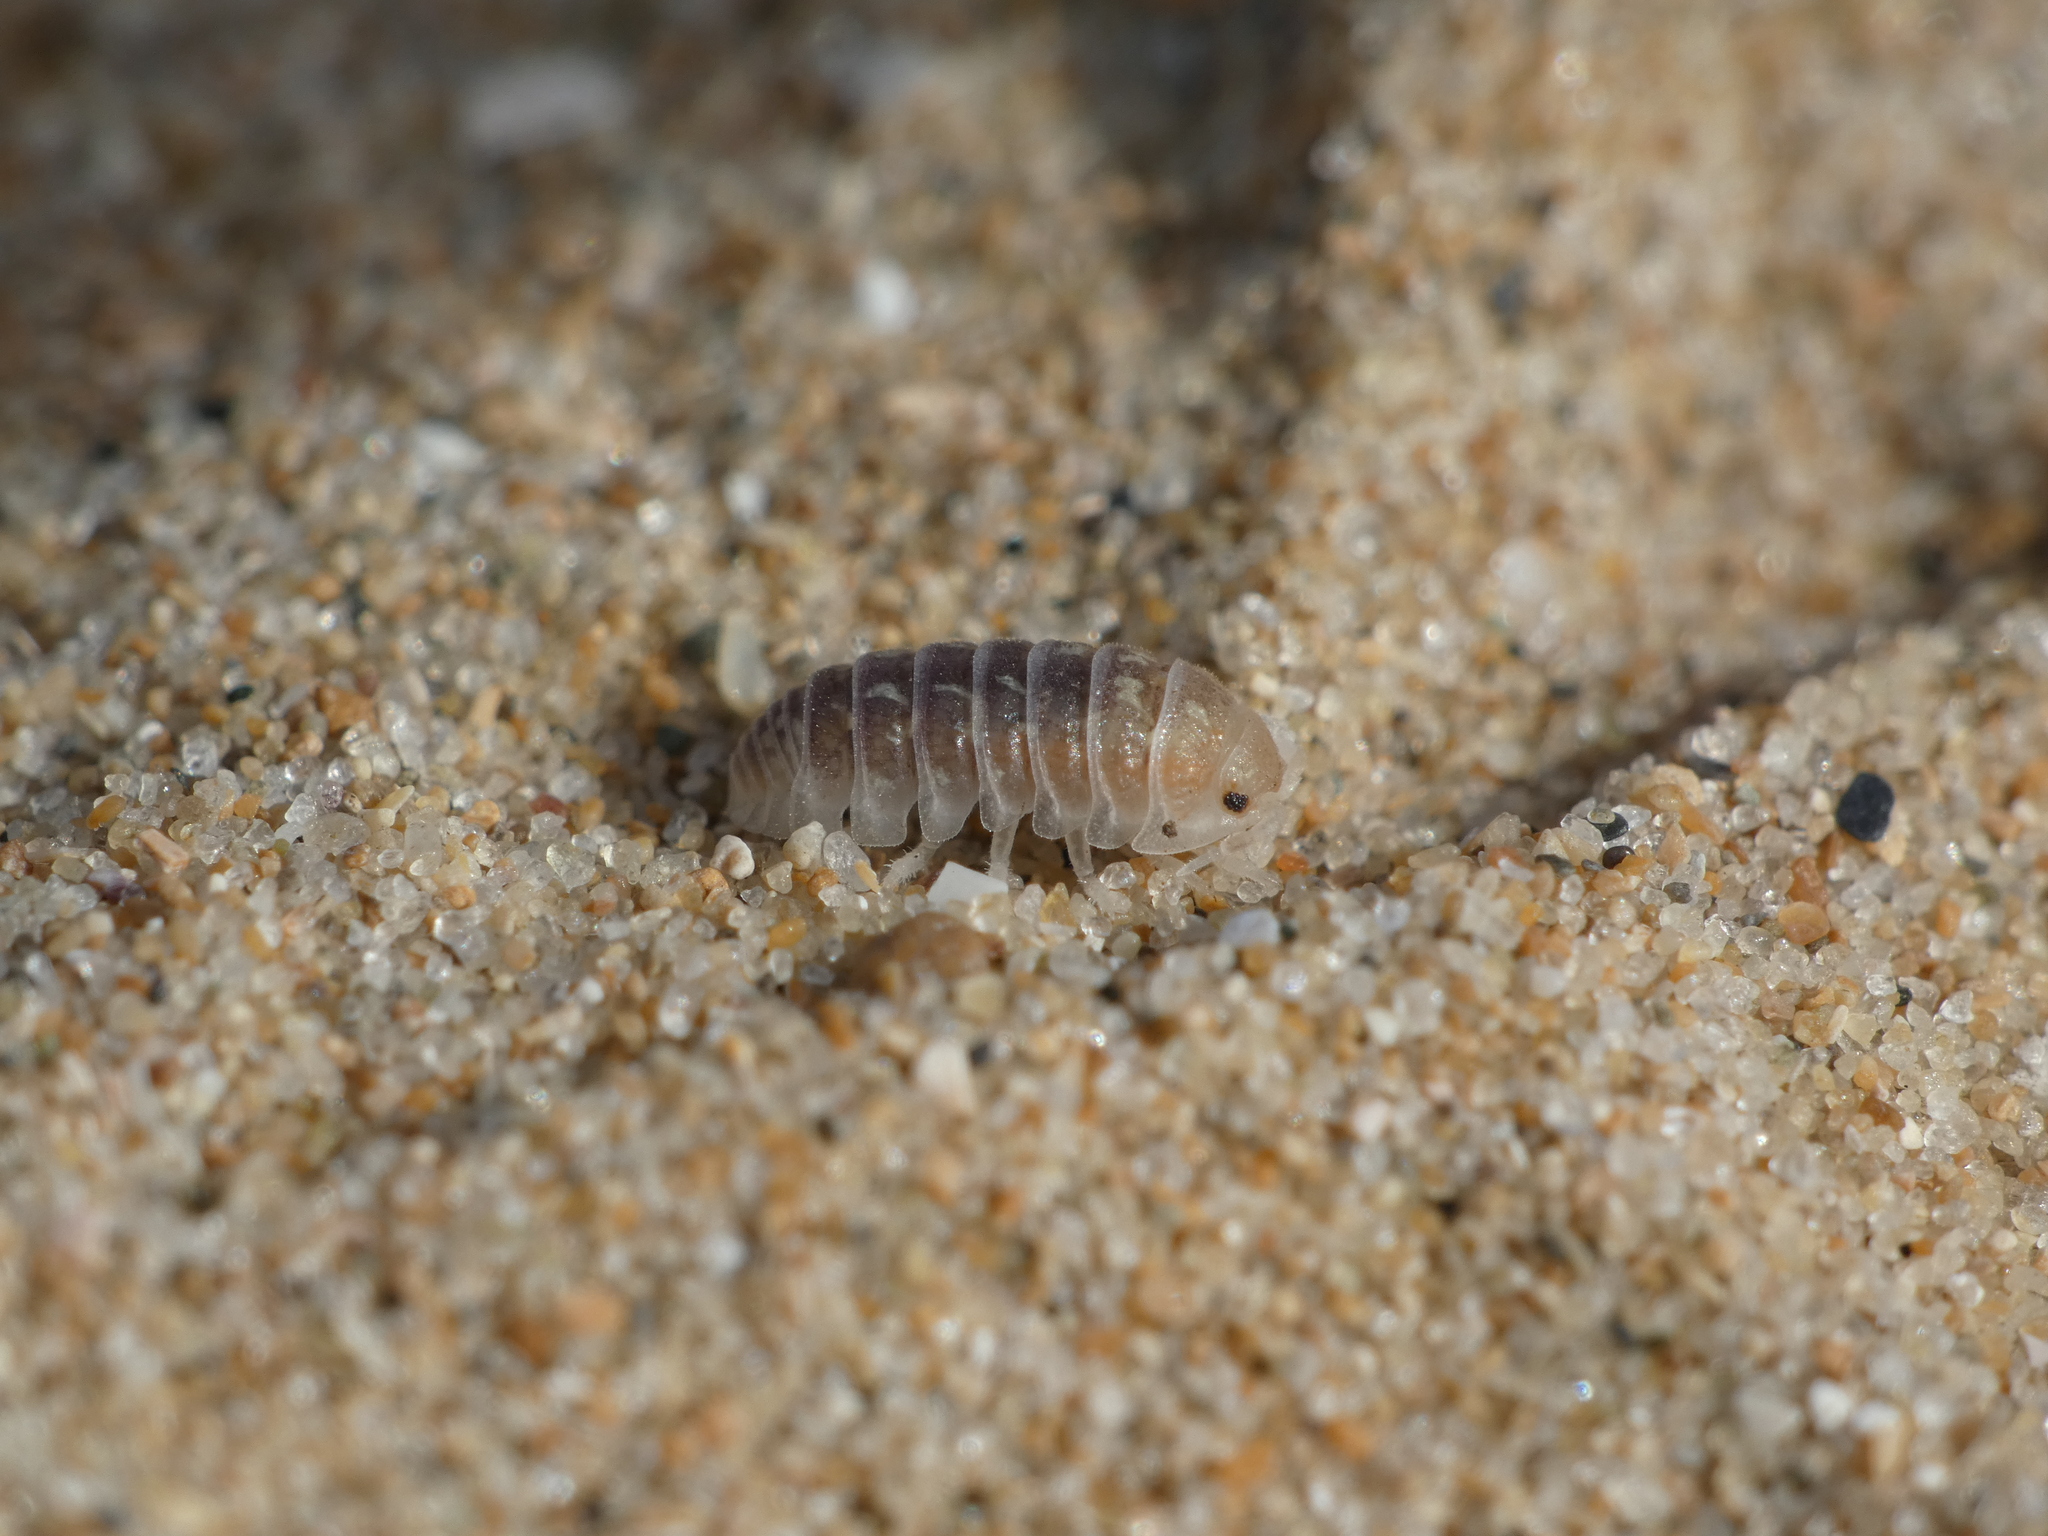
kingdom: Animalia
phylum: Arthropoda
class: Malacostraca
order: Isopoda
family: Armadillidiidae
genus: Armadillidium
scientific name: Armadillidium album
